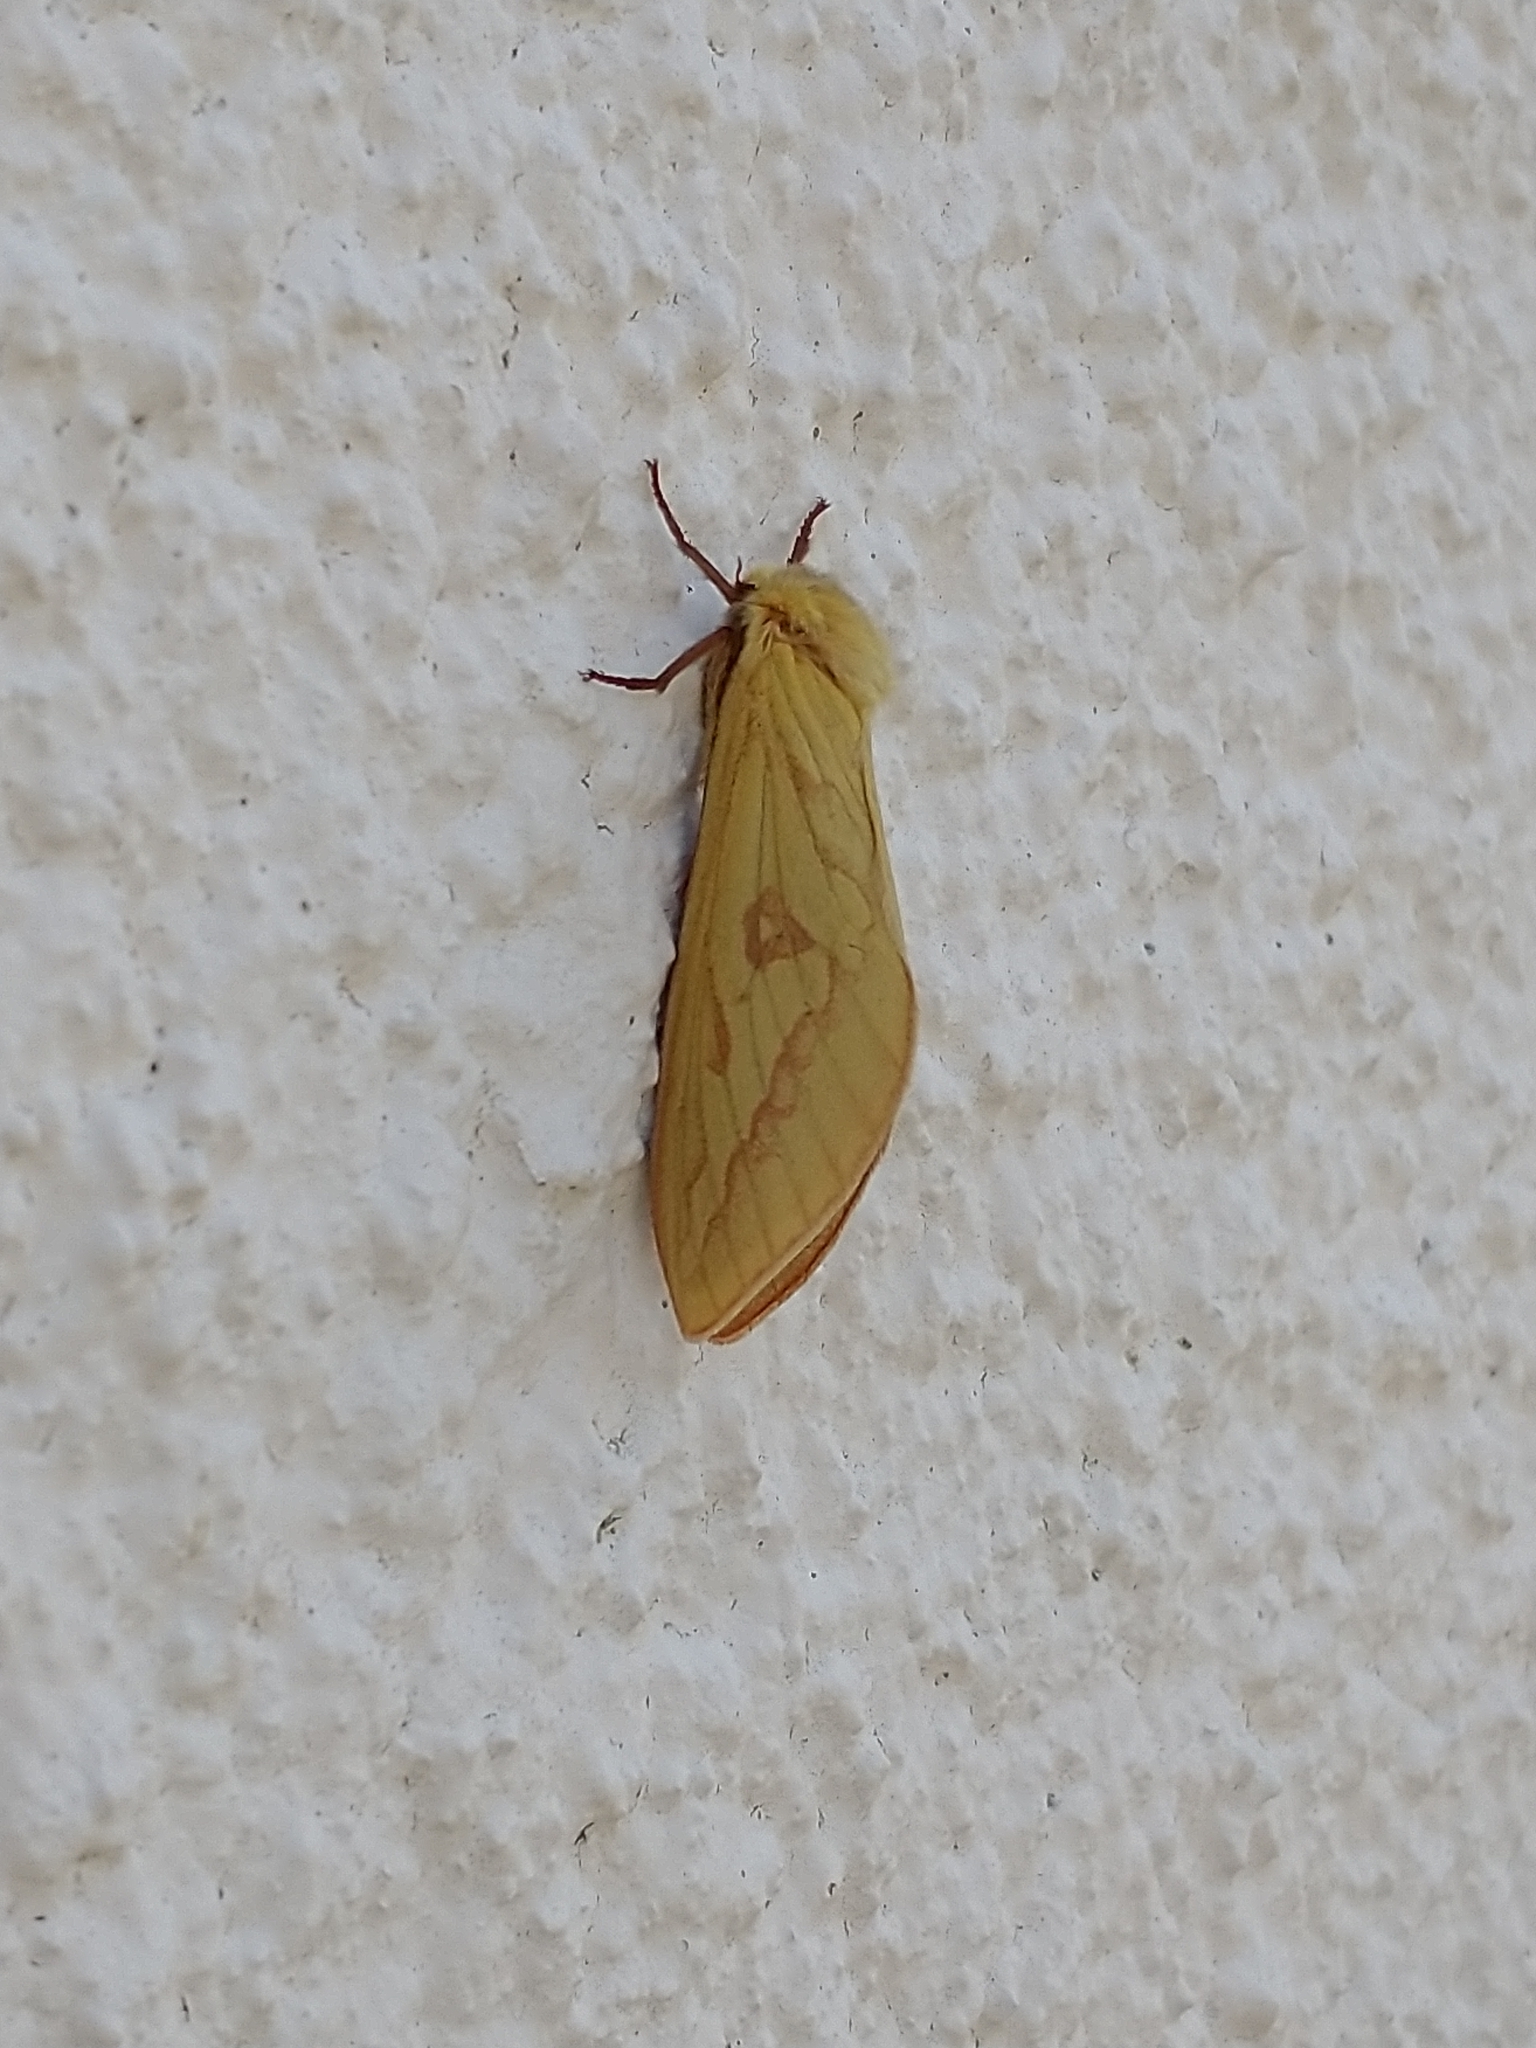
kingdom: Animalia
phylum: Arthropoda
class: Insecta
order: Lepidoptera
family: Hepialidae
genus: Hepialus
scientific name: Hepialus humuli
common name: Ghost moth
